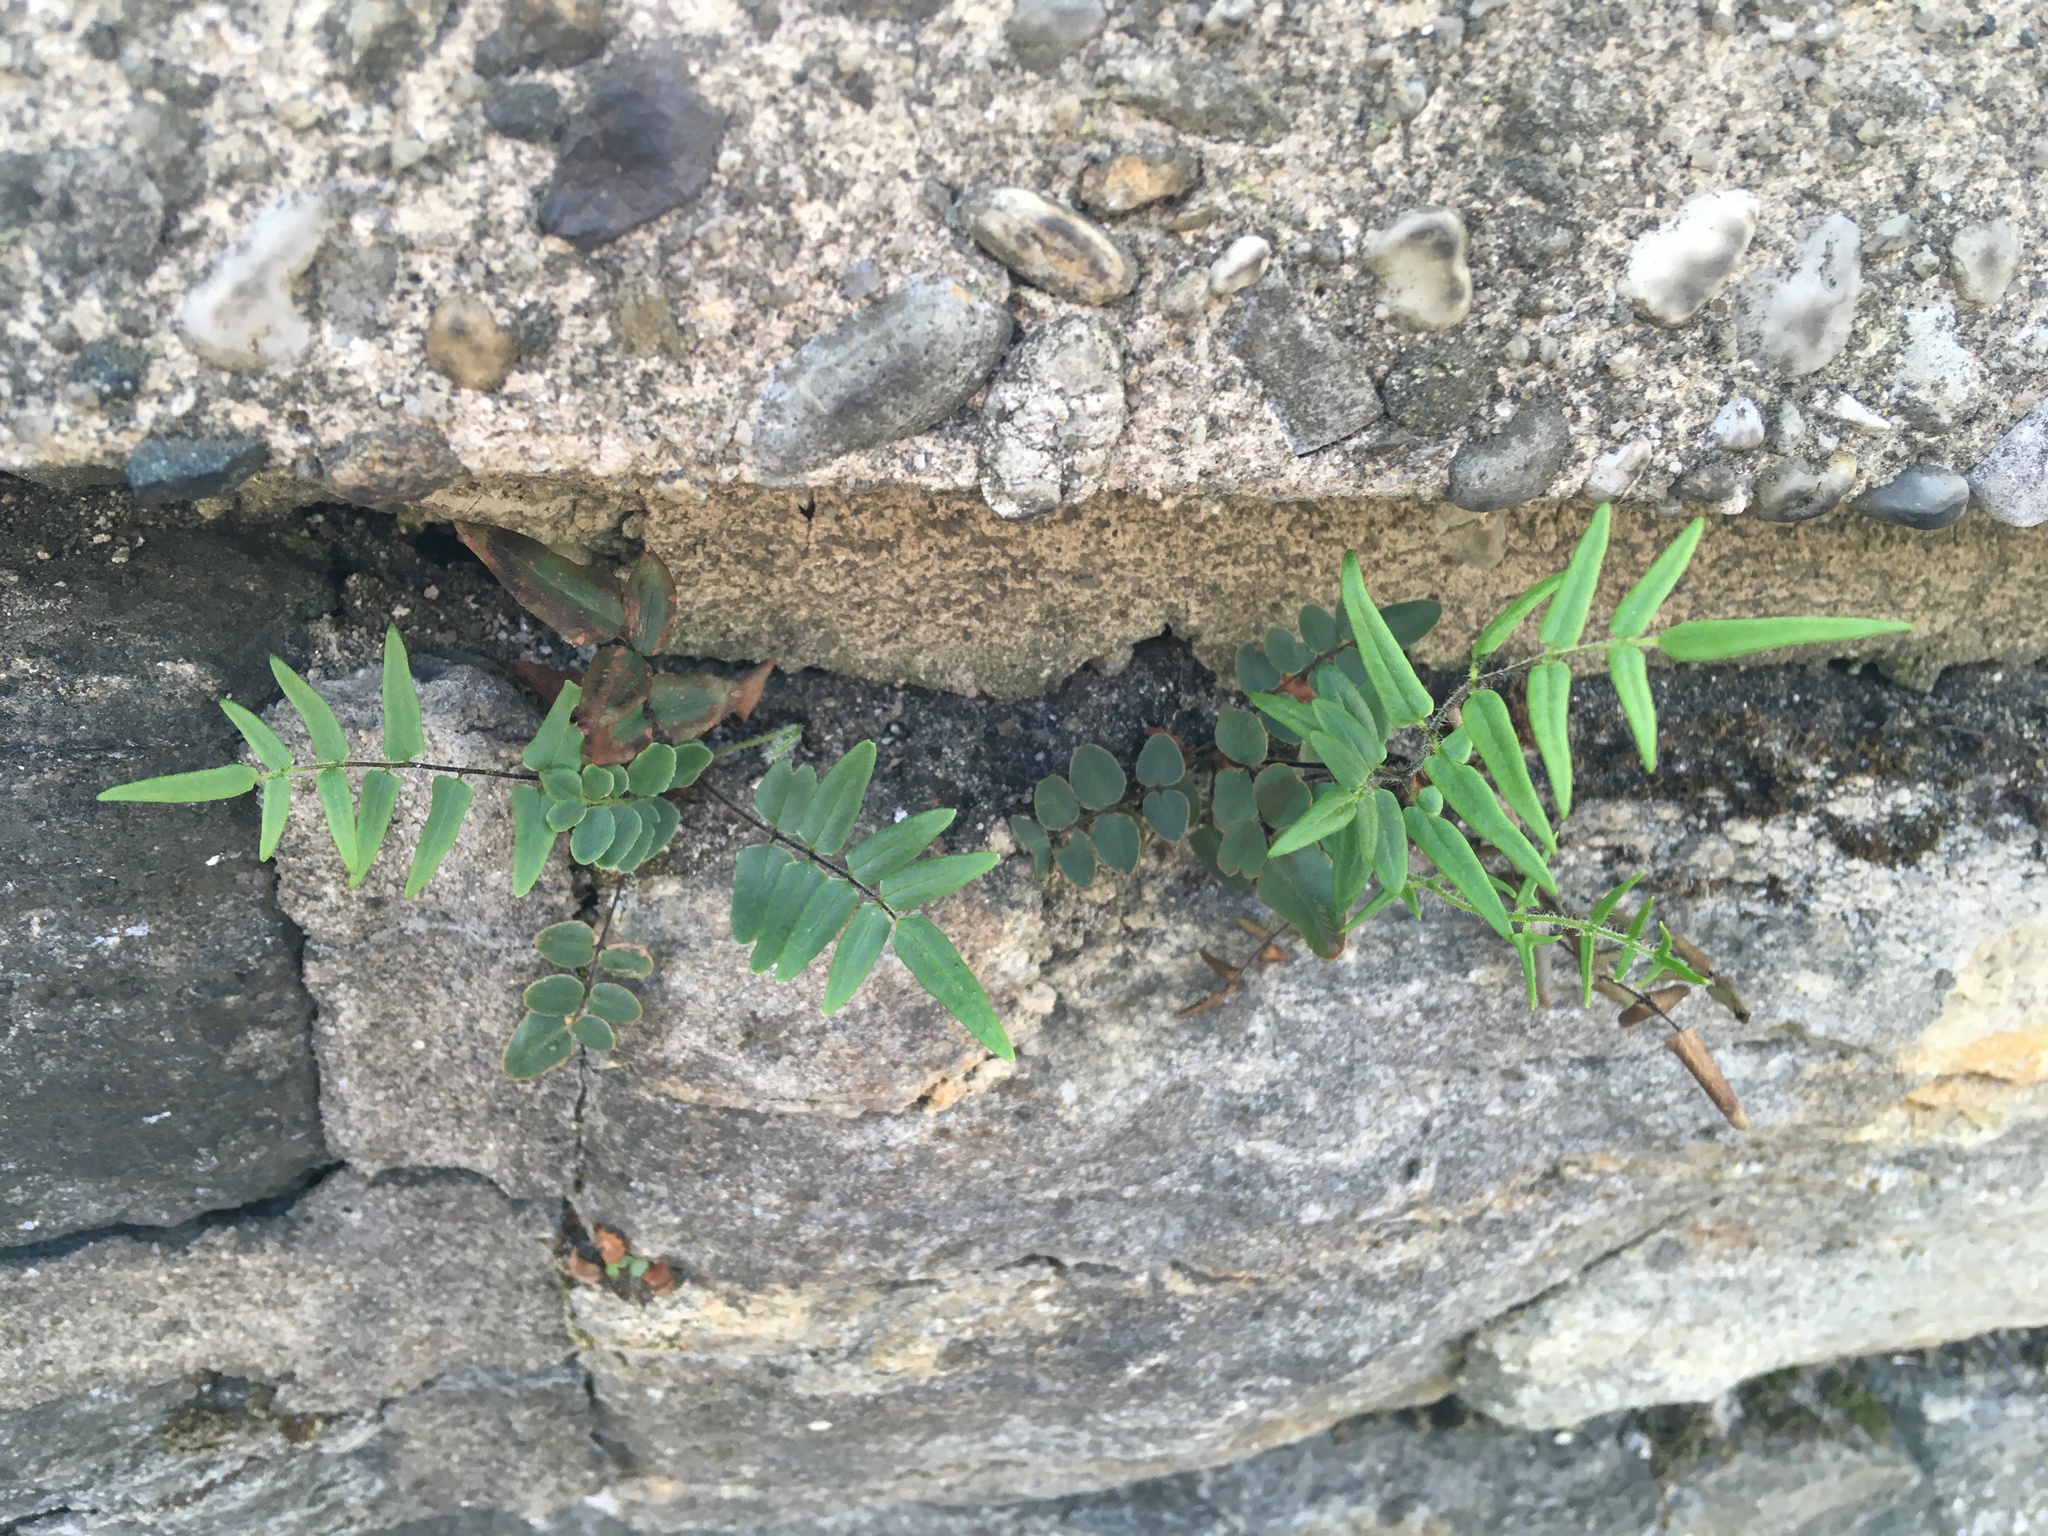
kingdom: Plantae
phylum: Tracheophyta
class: Polypodiopsida
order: Polypodiales
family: Pteridaceae
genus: Pellaea
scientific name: Pellaea atropurpurea
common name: Hairy cliffbrake
